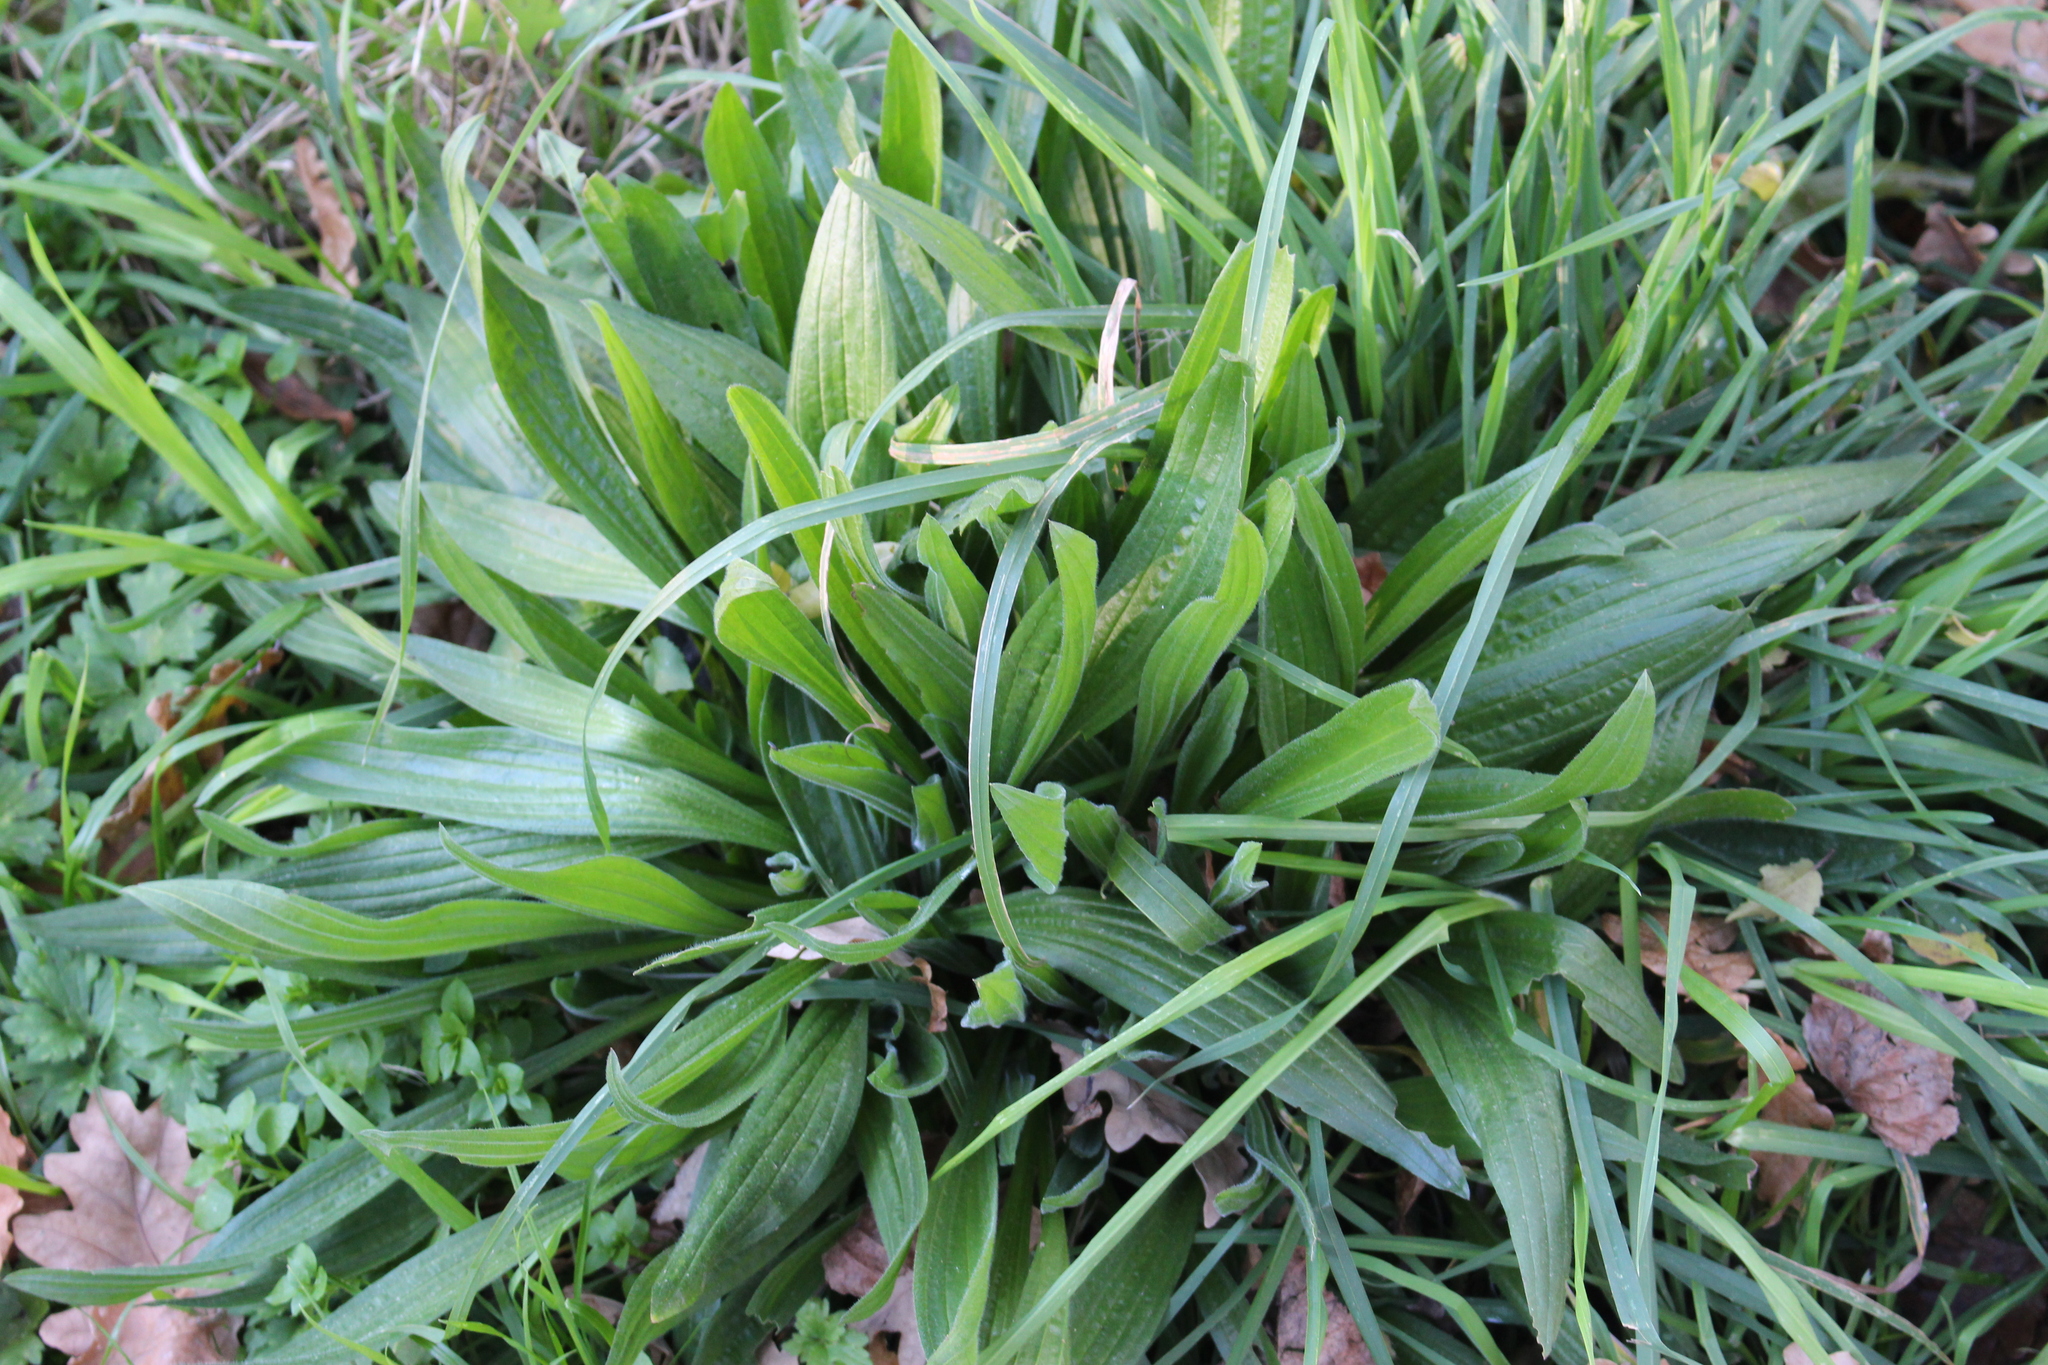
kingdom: Plantae
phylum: Tracheophyta
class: Magnoliopsida
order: Lamiales
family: Plantaginaceae
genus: Plantago
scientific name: Plantago lanceolata
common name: Ribwort plantain
